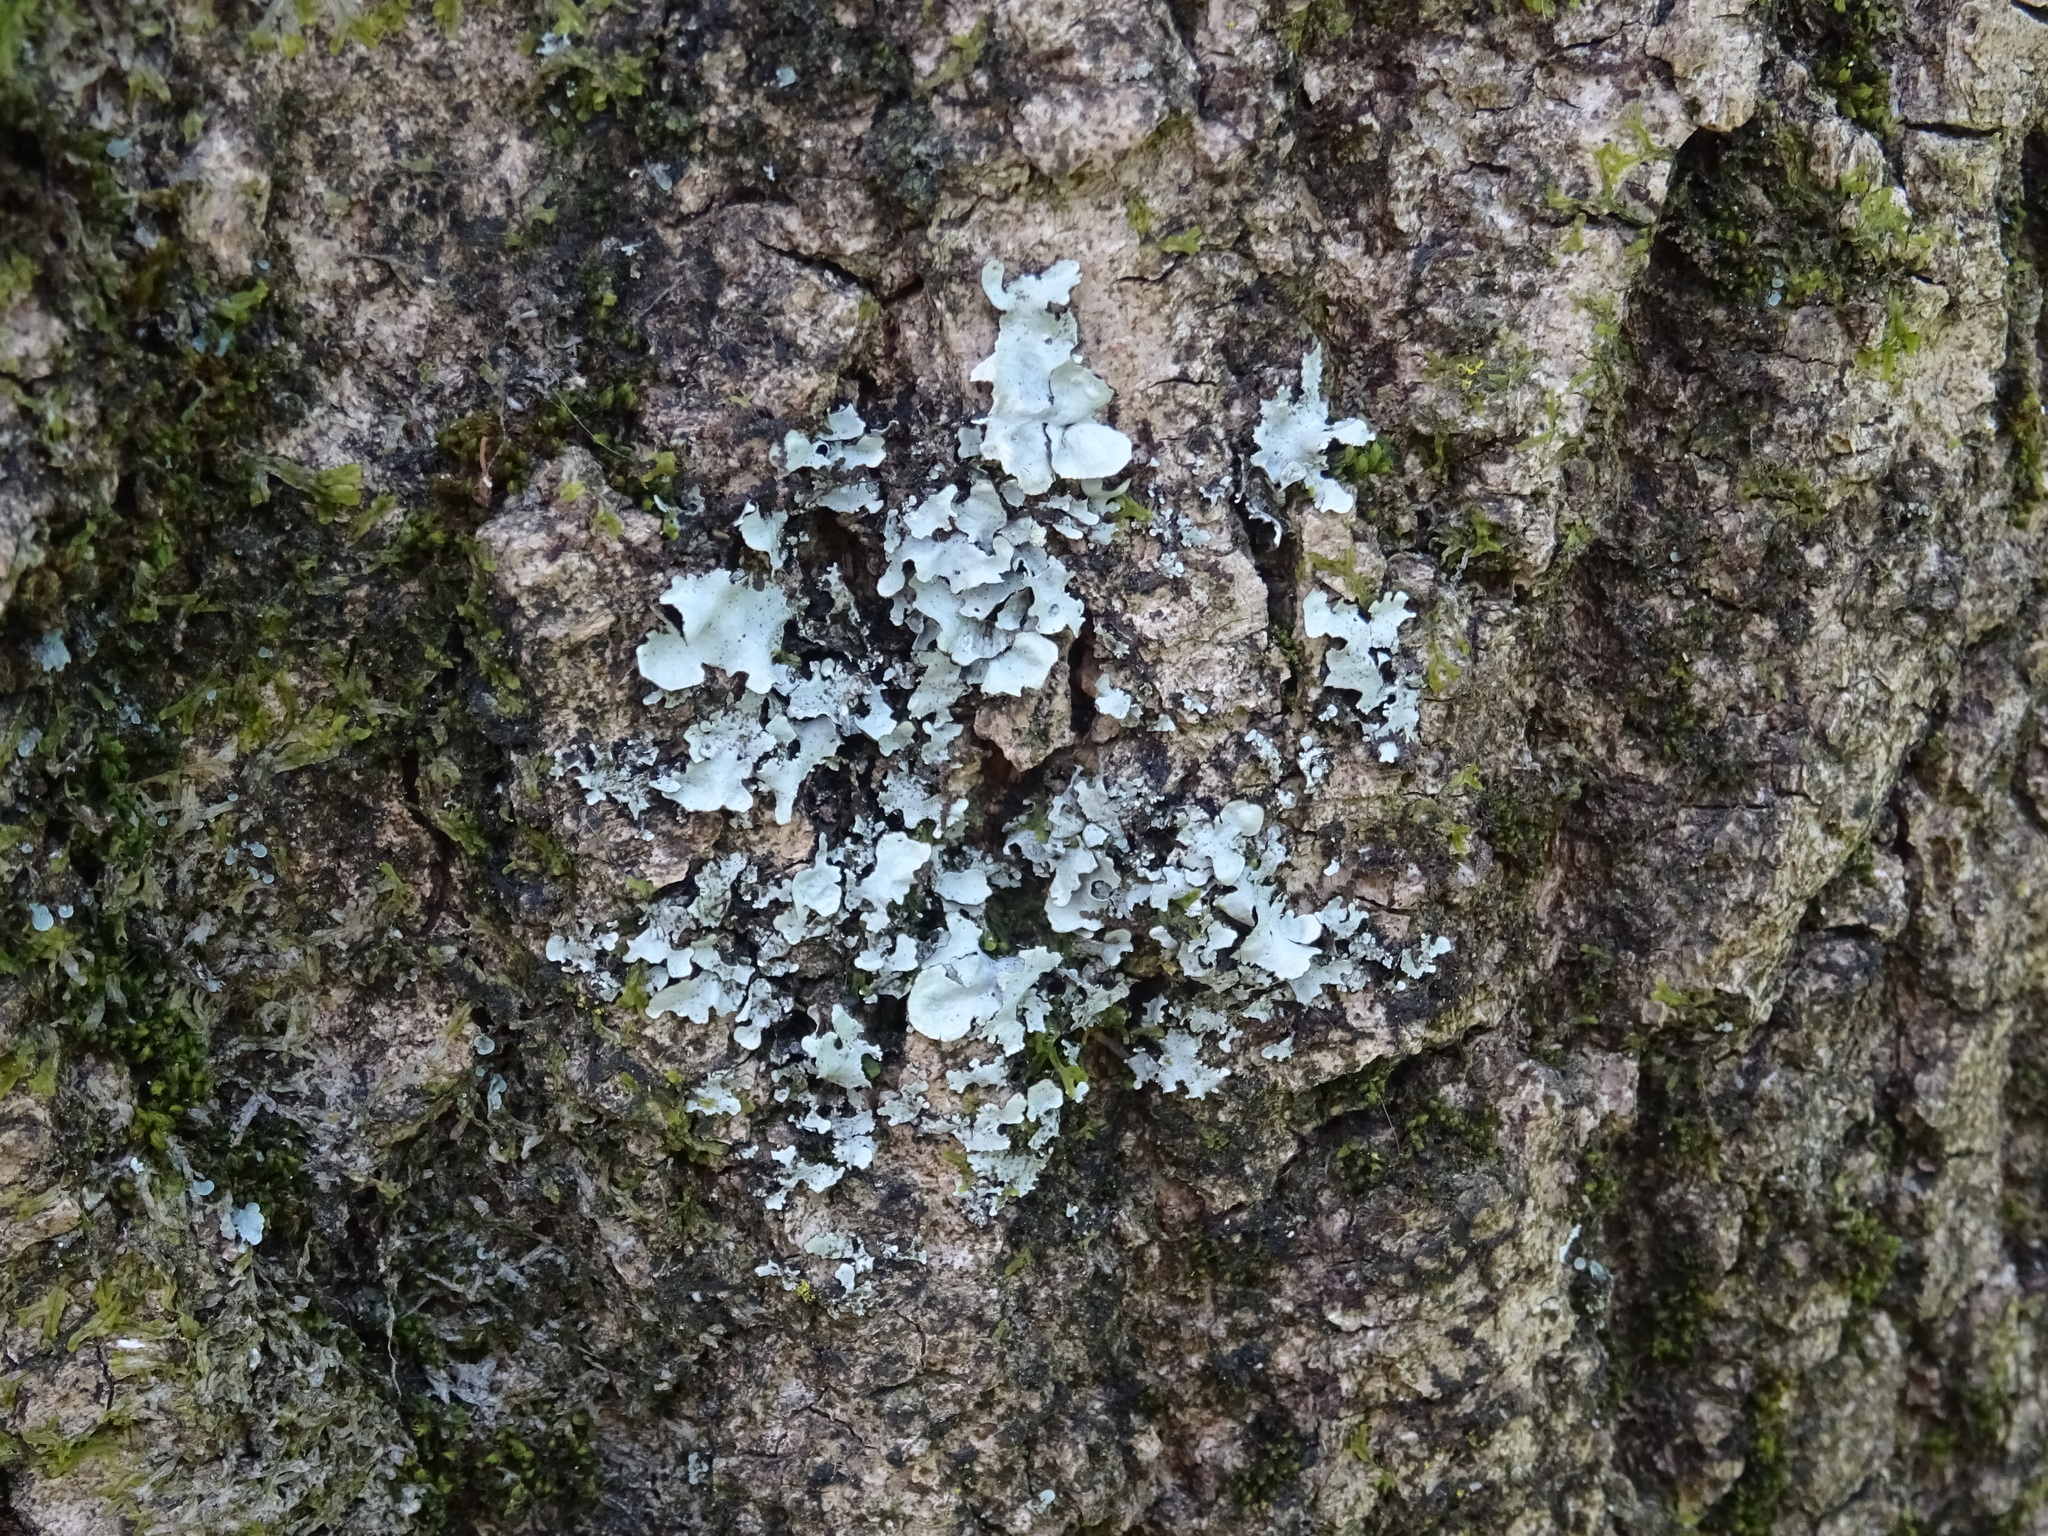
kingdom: Fungi
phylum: Ascomycota
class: Lecanoromycetes
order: Lecanorales
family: Parmeliaceae
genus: Parmelia
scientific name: Parmelia sulcata
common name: Netted shield lichen
